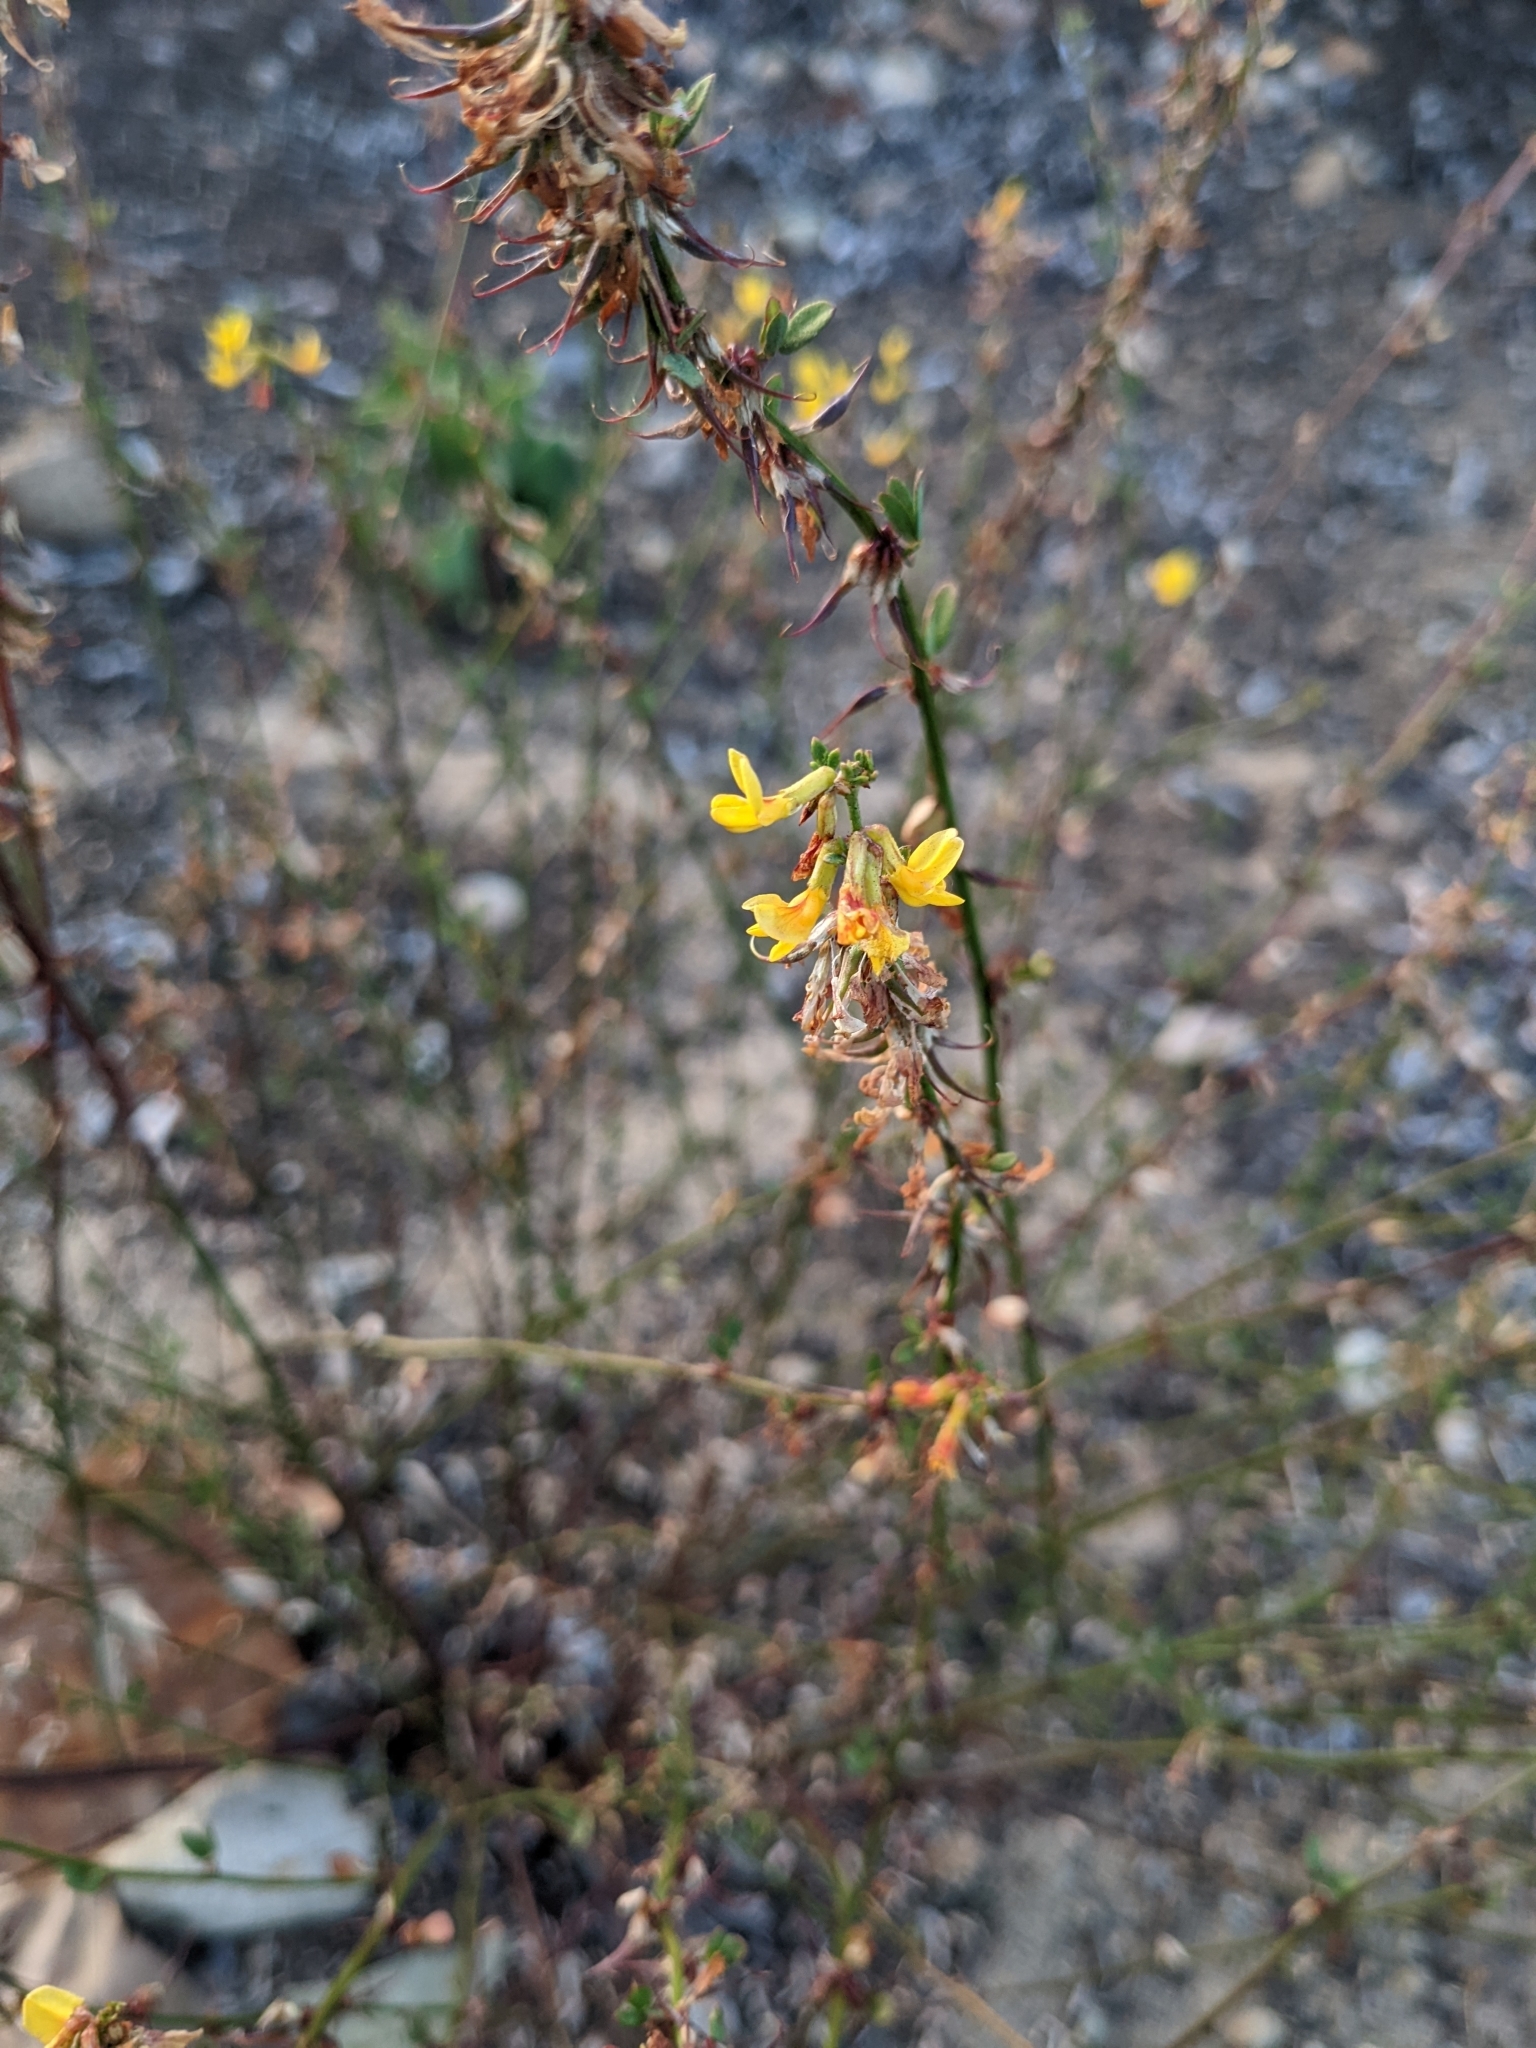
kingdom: Plantae
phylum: Tracheophyta
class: Magnoliopsida
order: Fabales
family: Fabaceae
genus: Acmispon
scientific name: Acmispon glaber
